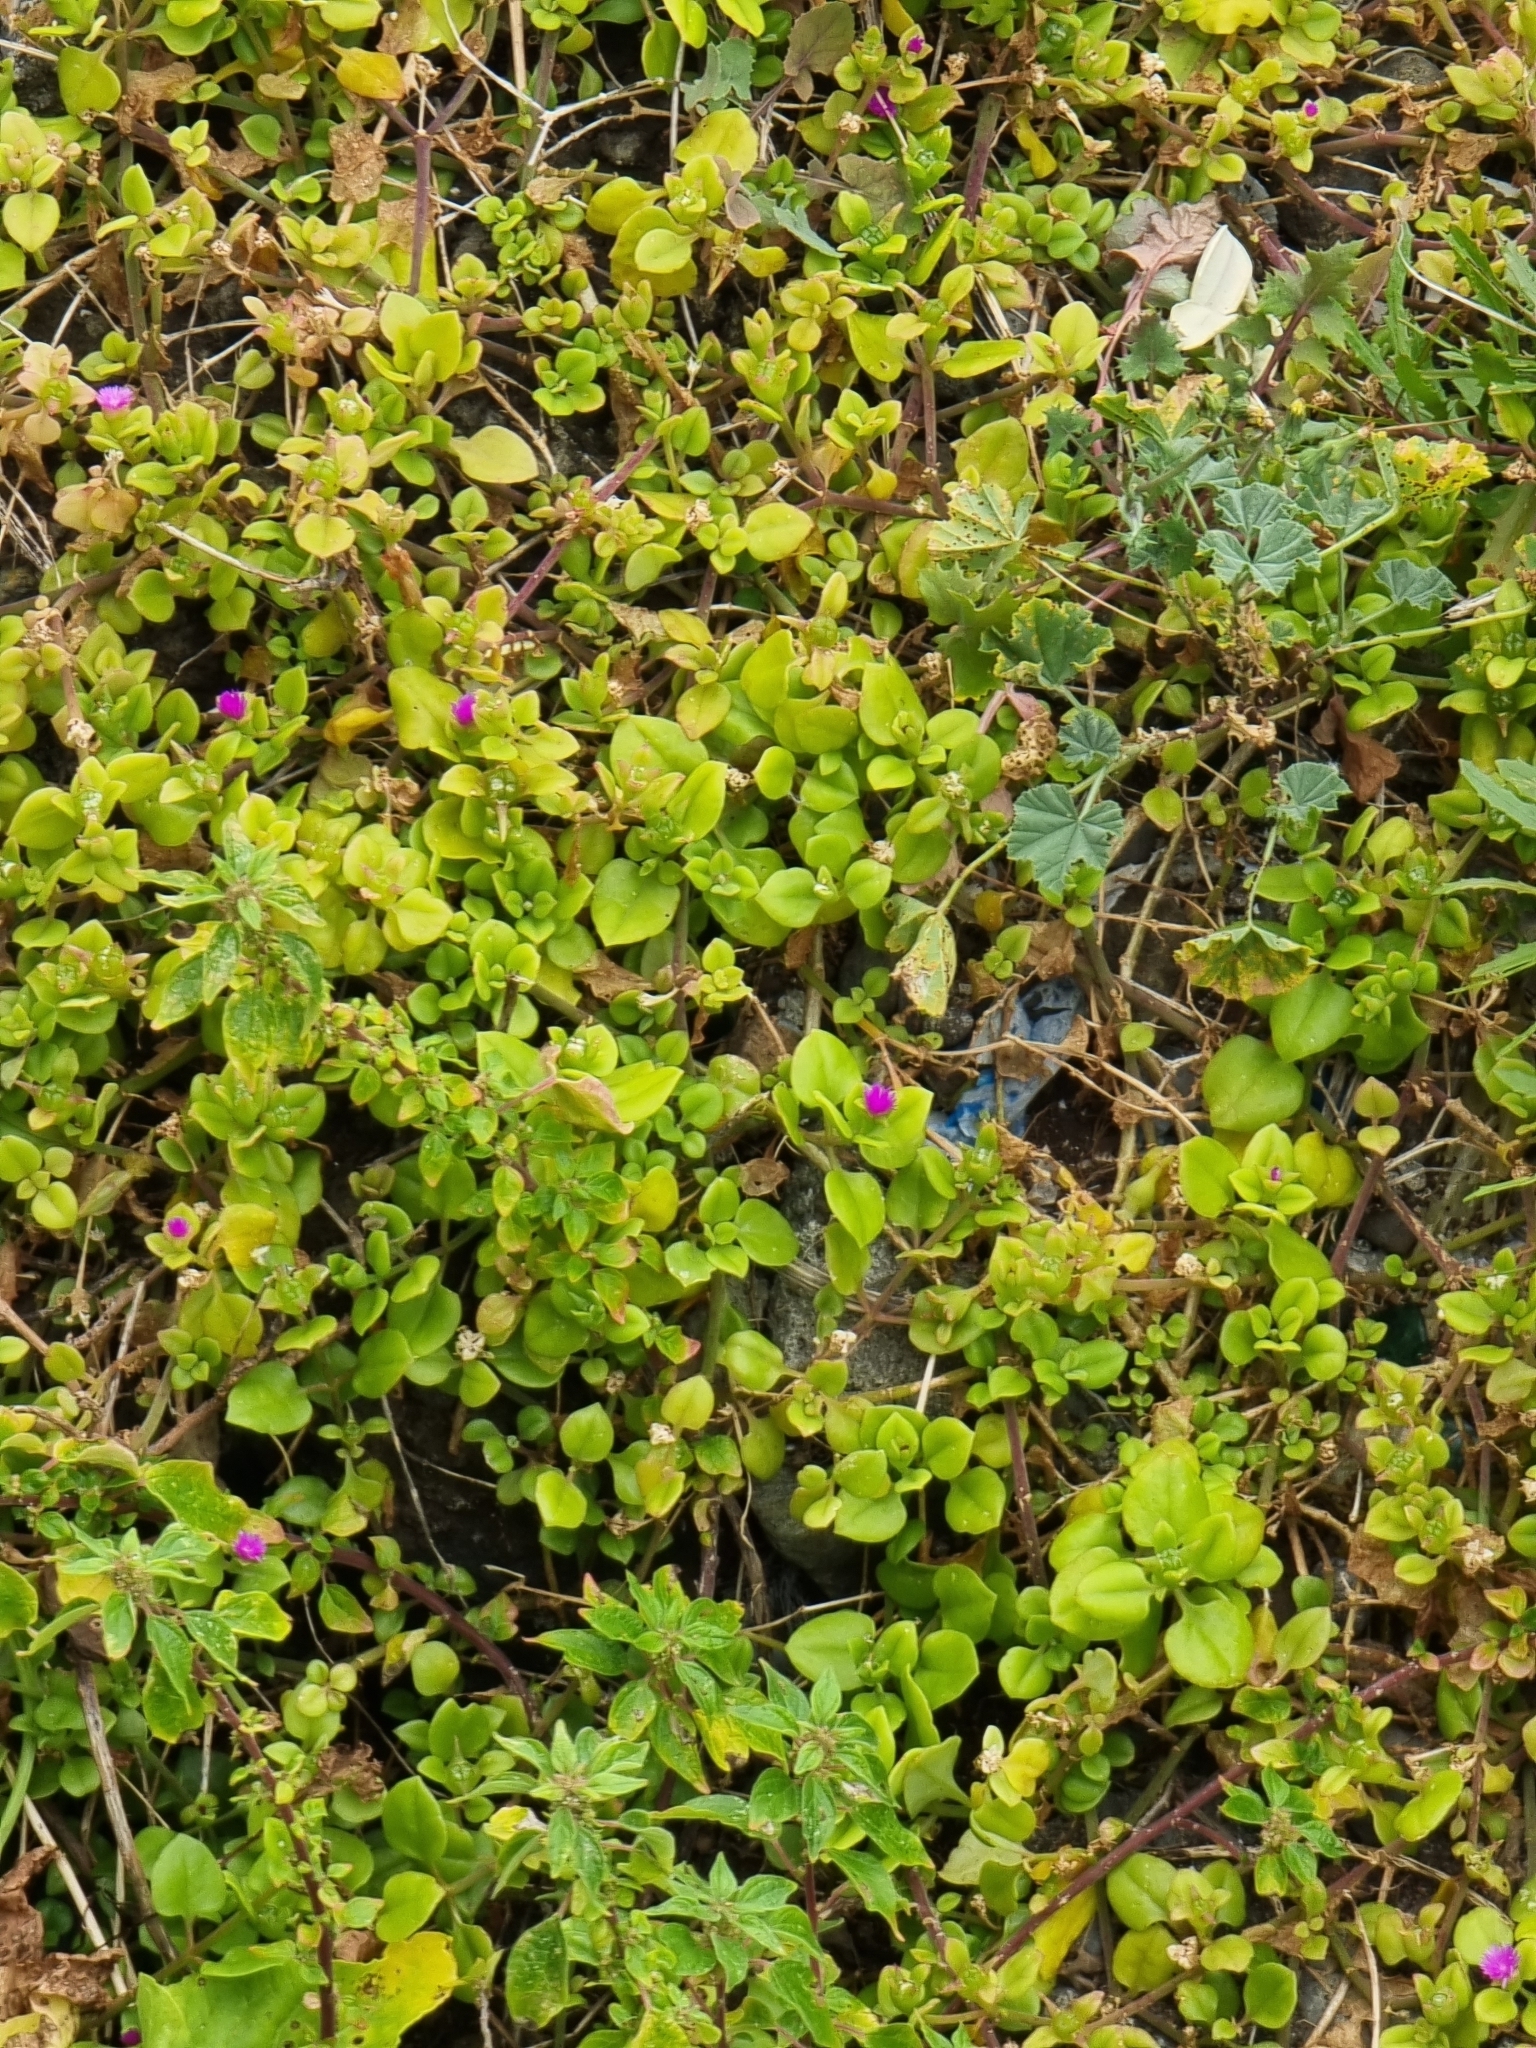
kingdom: Plantae
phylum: Tracheophyta
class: Magnoliopsida
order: Caryophyllales
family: Aizoaceae
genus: Mesembryanthemum
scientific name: Mesembryanthemum cordifolium
